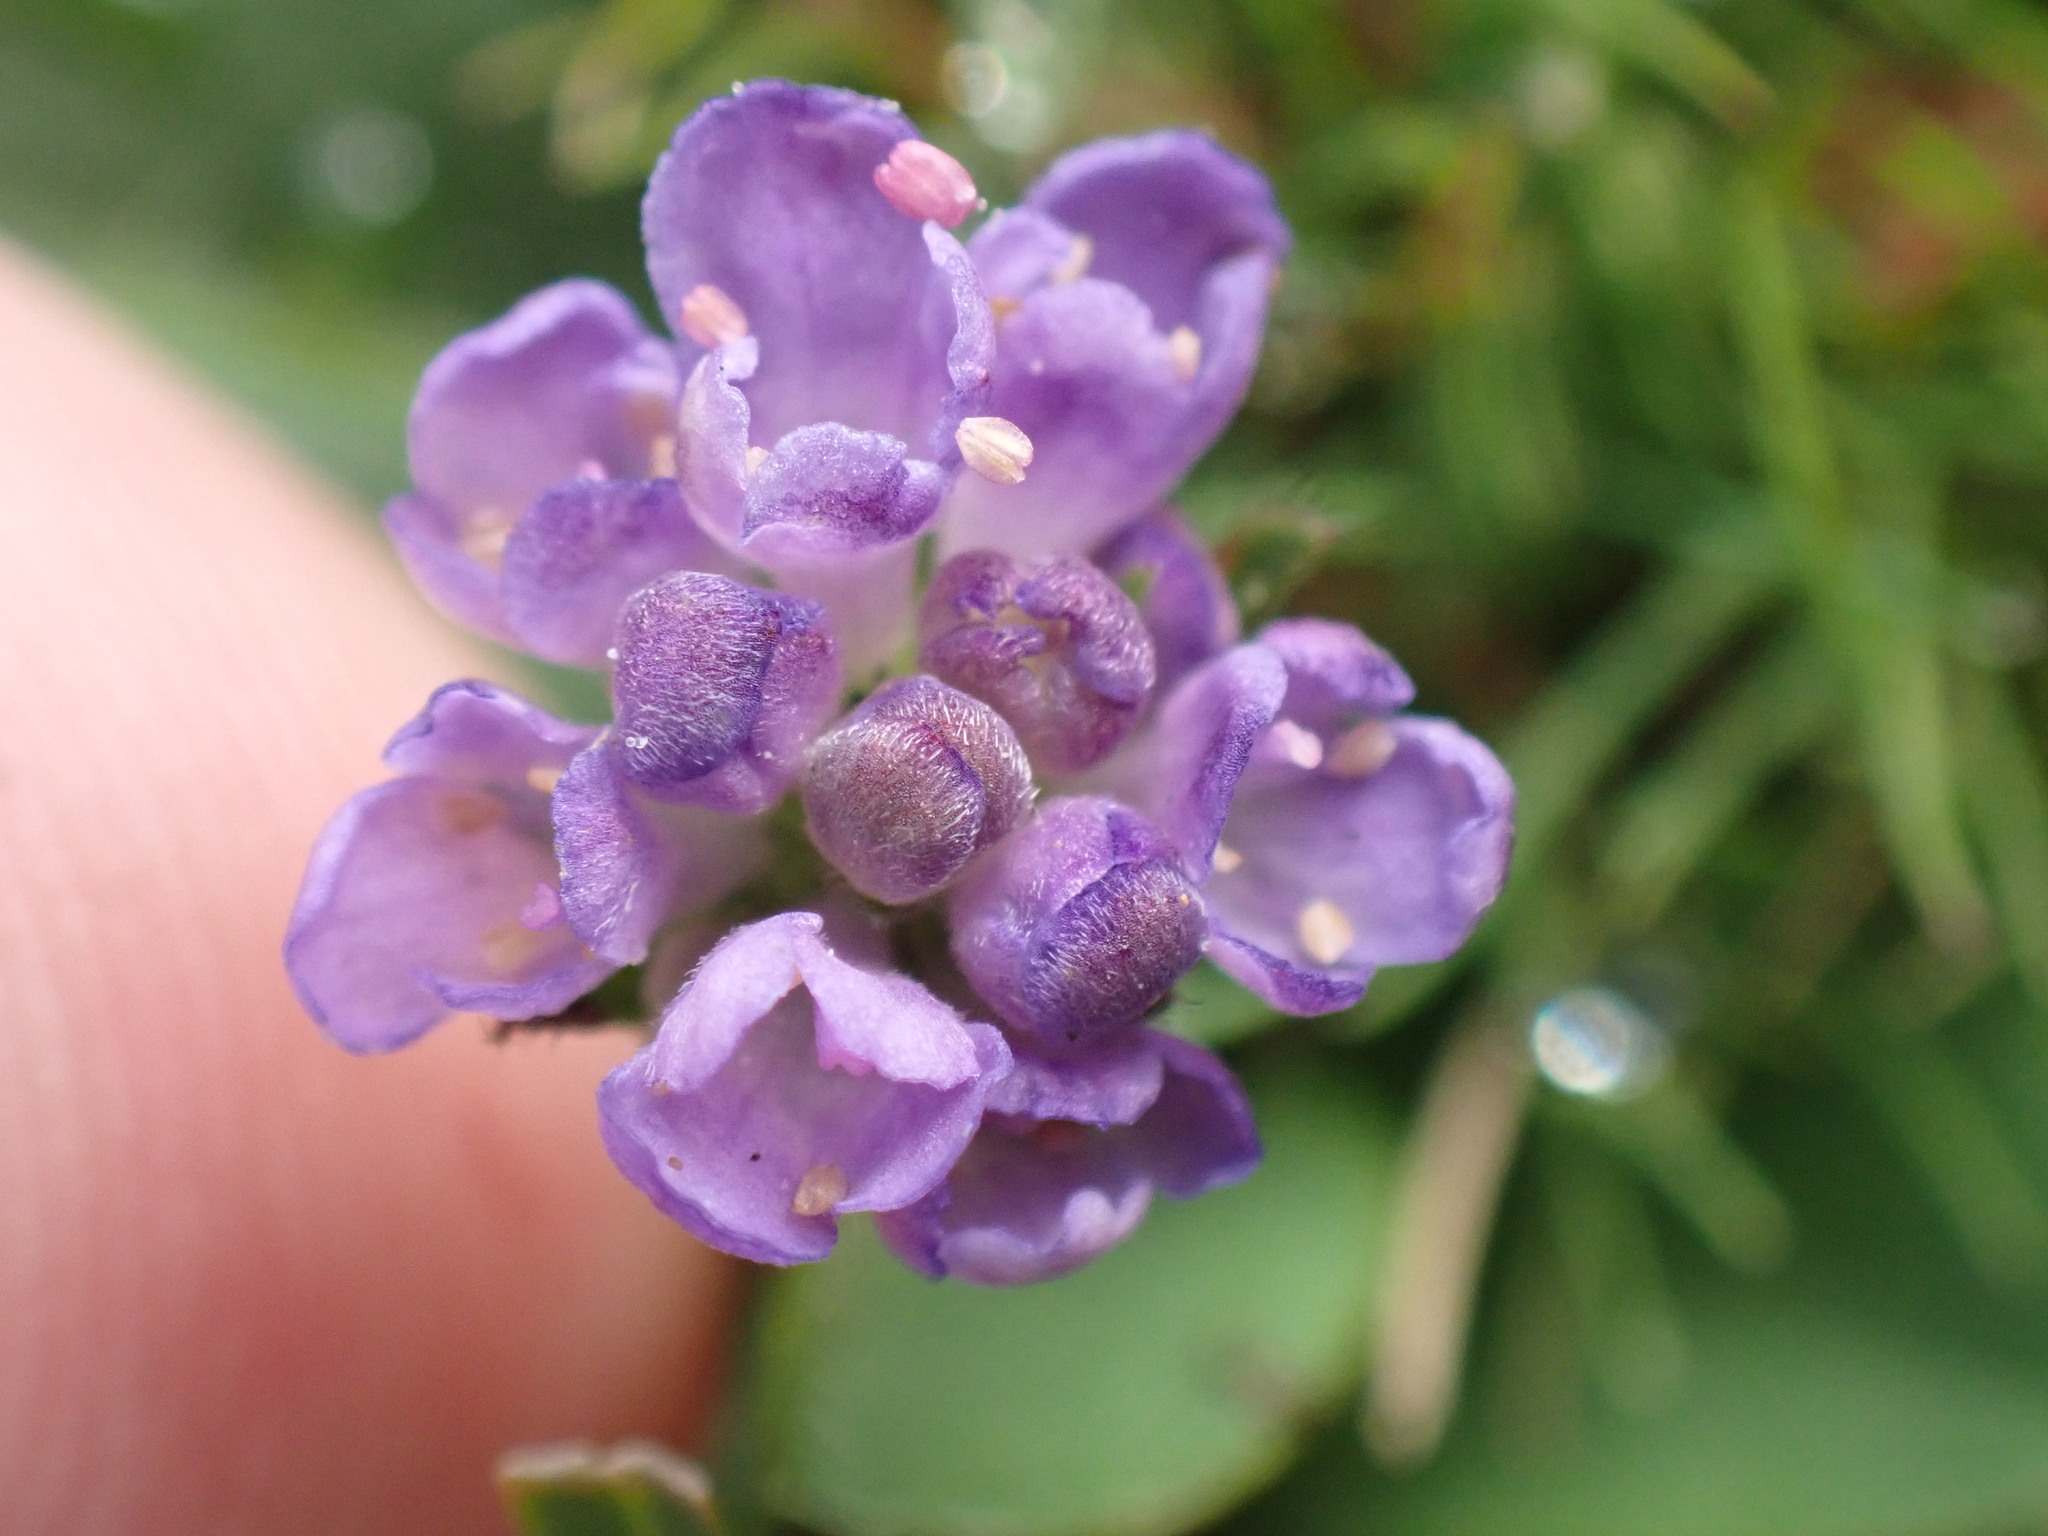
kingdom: Plantae
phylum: Tracheophyta
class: Magnoliopsida
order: Dipsacales
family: Caprifoliaceae
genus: Succisa
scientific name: Succisa pratensis
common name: Devil's-bit
